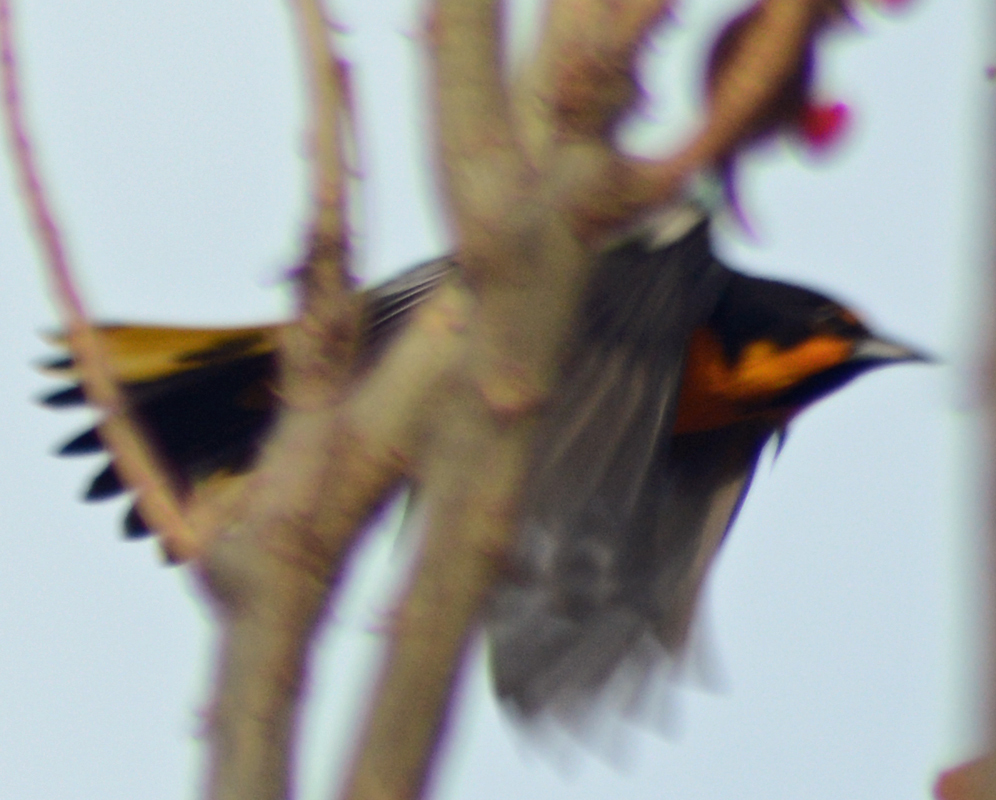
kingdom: Animalia
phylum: Chordata
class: Aves
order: Passeriformes
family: Icteridae
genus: Icterus
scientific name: Icterus abeillei
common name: Black-backed oriole
